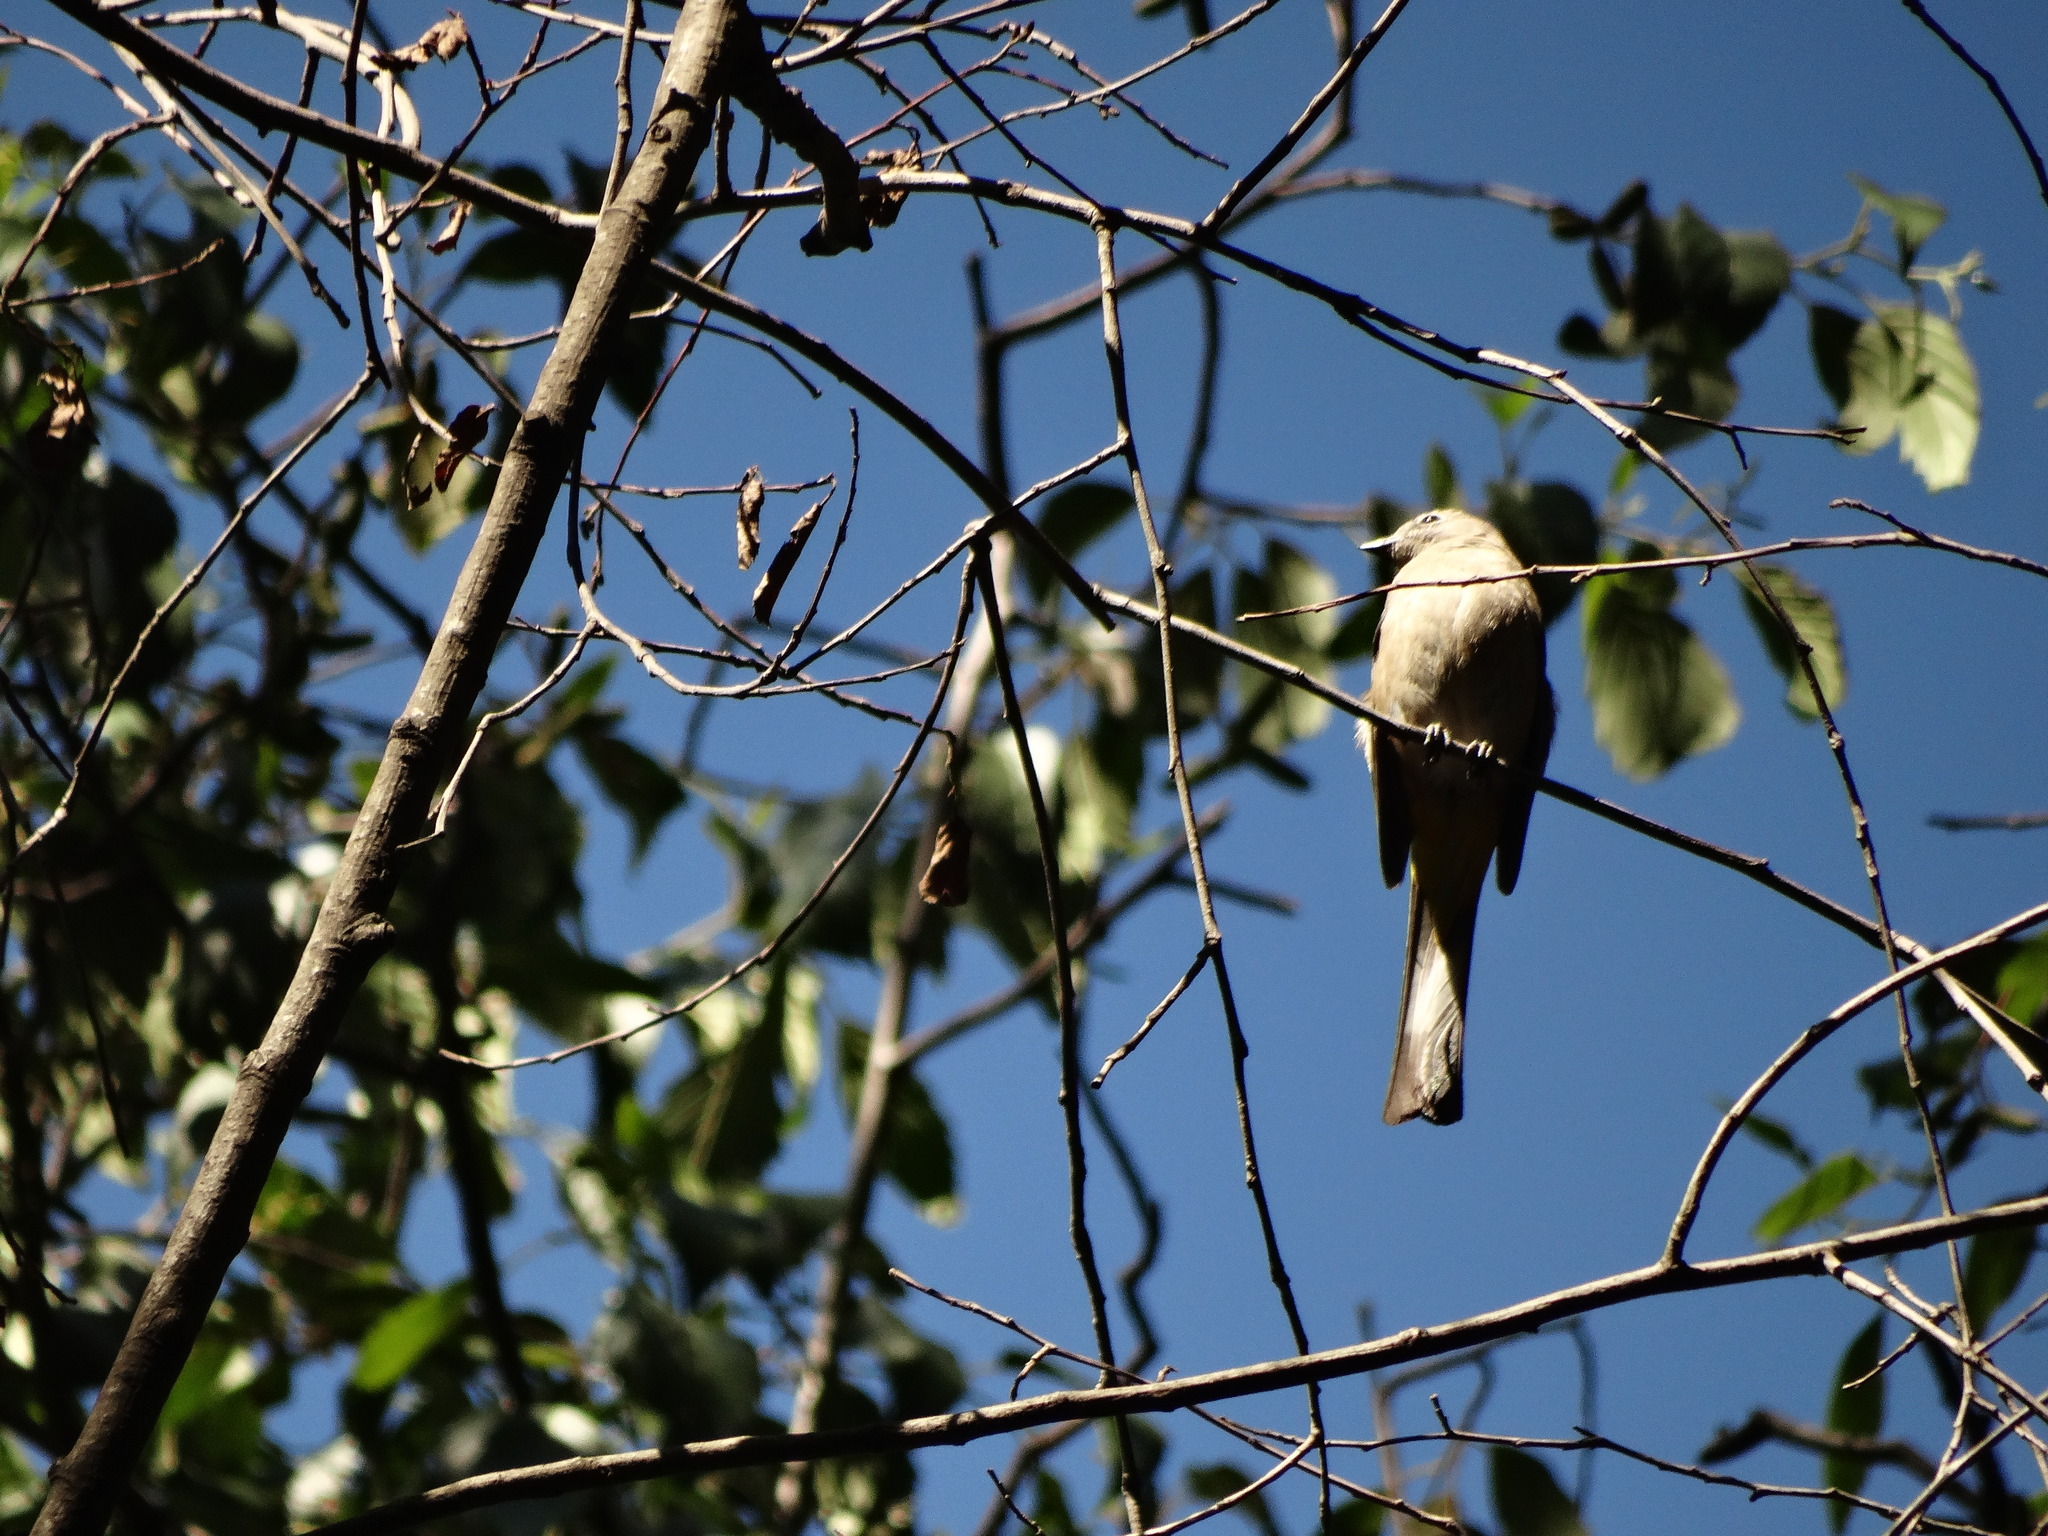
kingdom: Animalia
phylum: Chordata
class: Aves
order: Passeriformes
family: Ptilogonatidae
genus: Ptilogonys
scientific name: Ptilogonys cinereus
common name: Gray silky-flycatcher
